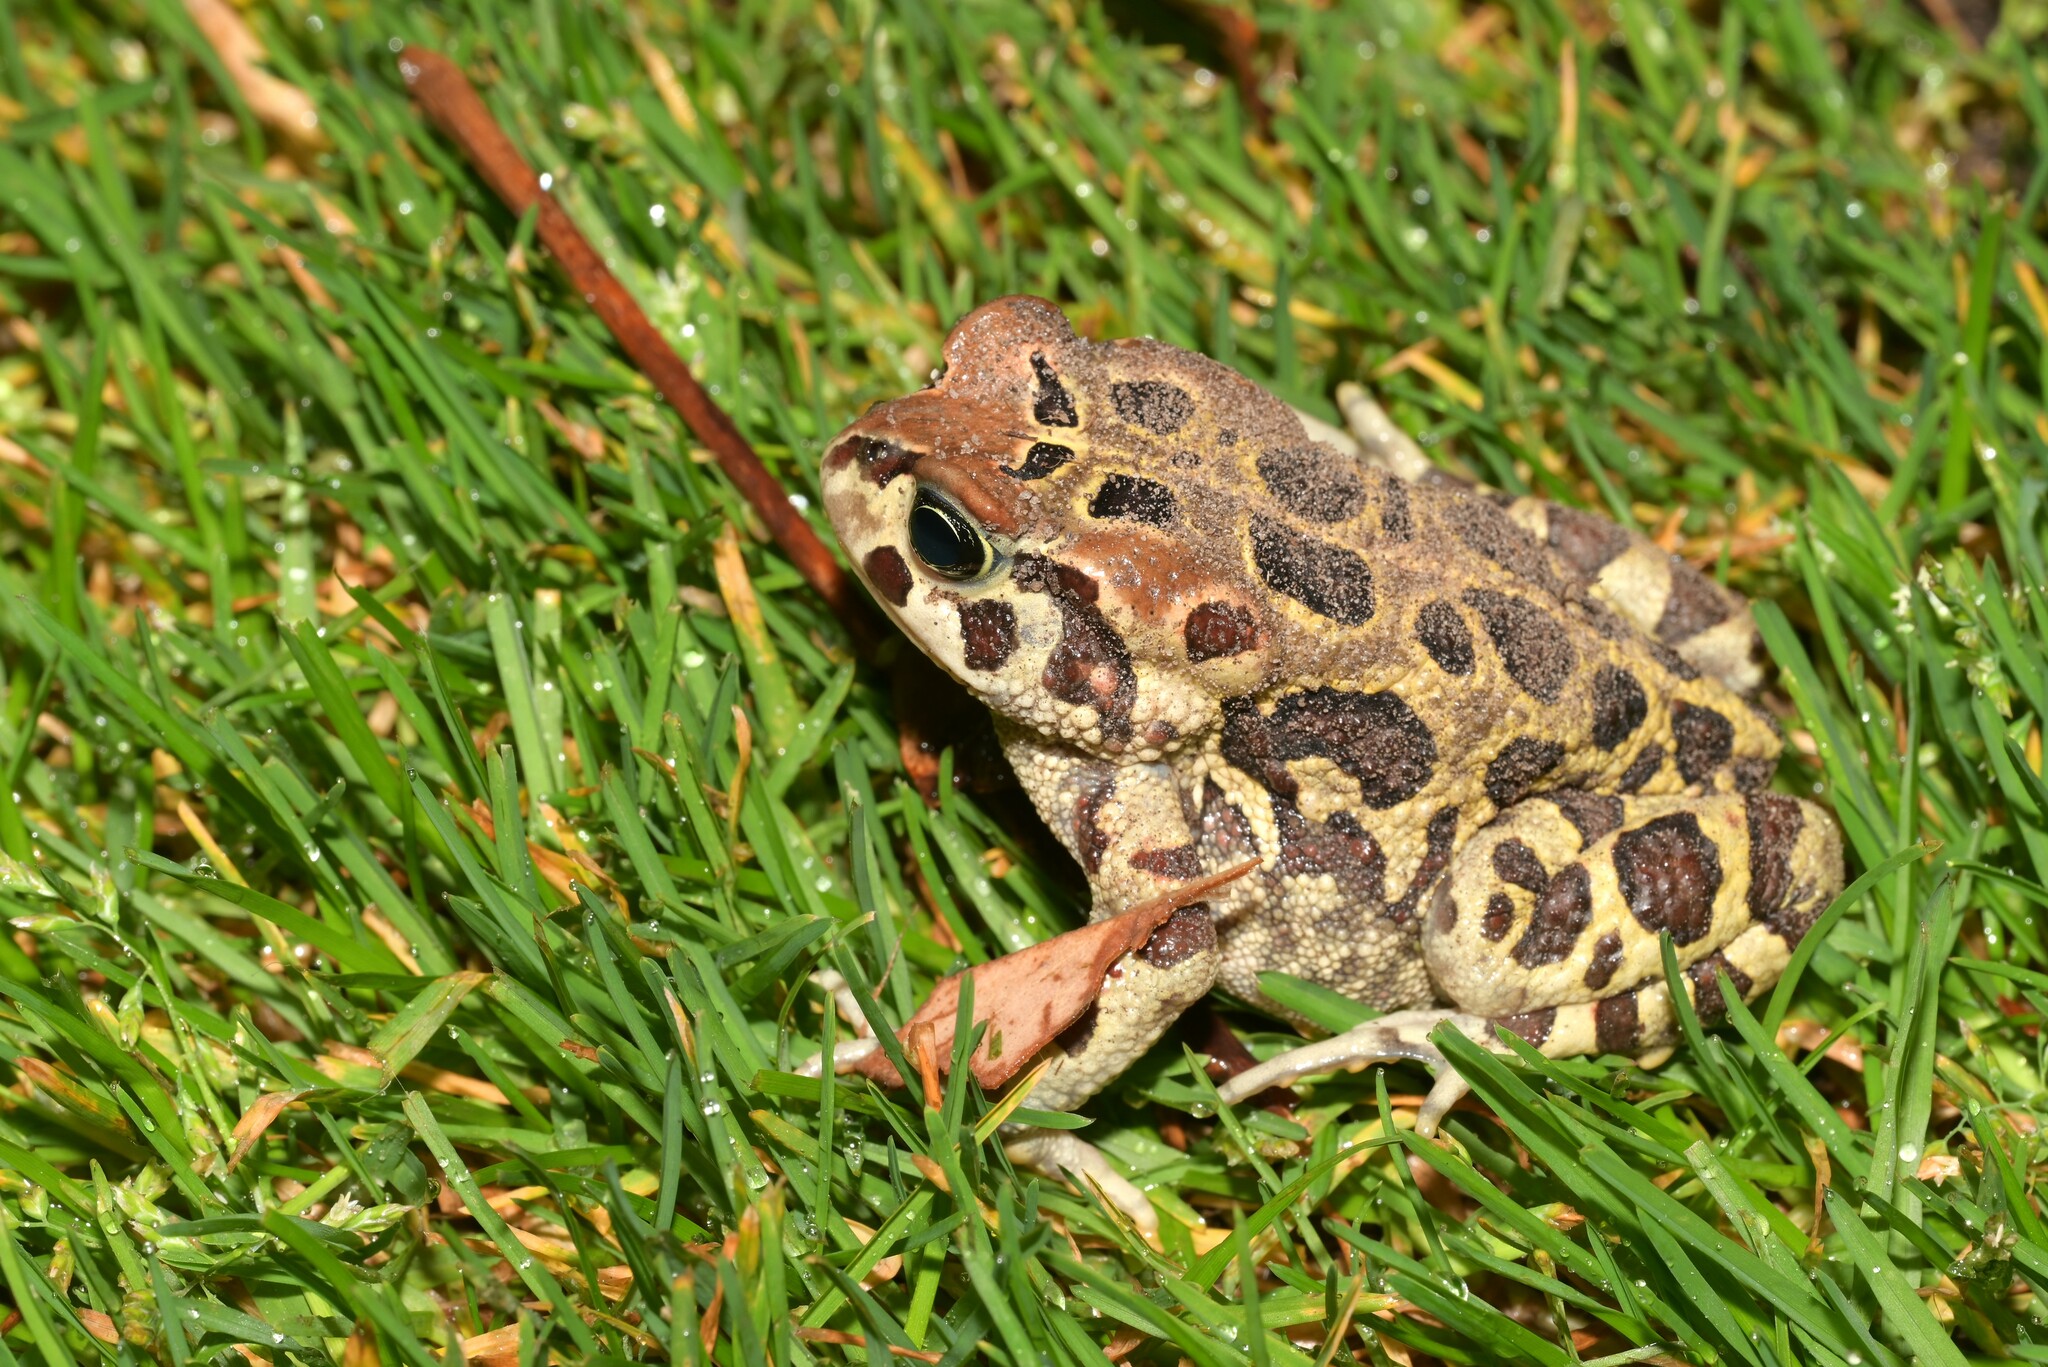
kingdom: Animalia
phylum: Chordata
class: Amphibia
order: Anura
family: Bufonidae
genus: Sclerophrys
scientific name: Sclerophrys pantherina
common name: Panther toad
